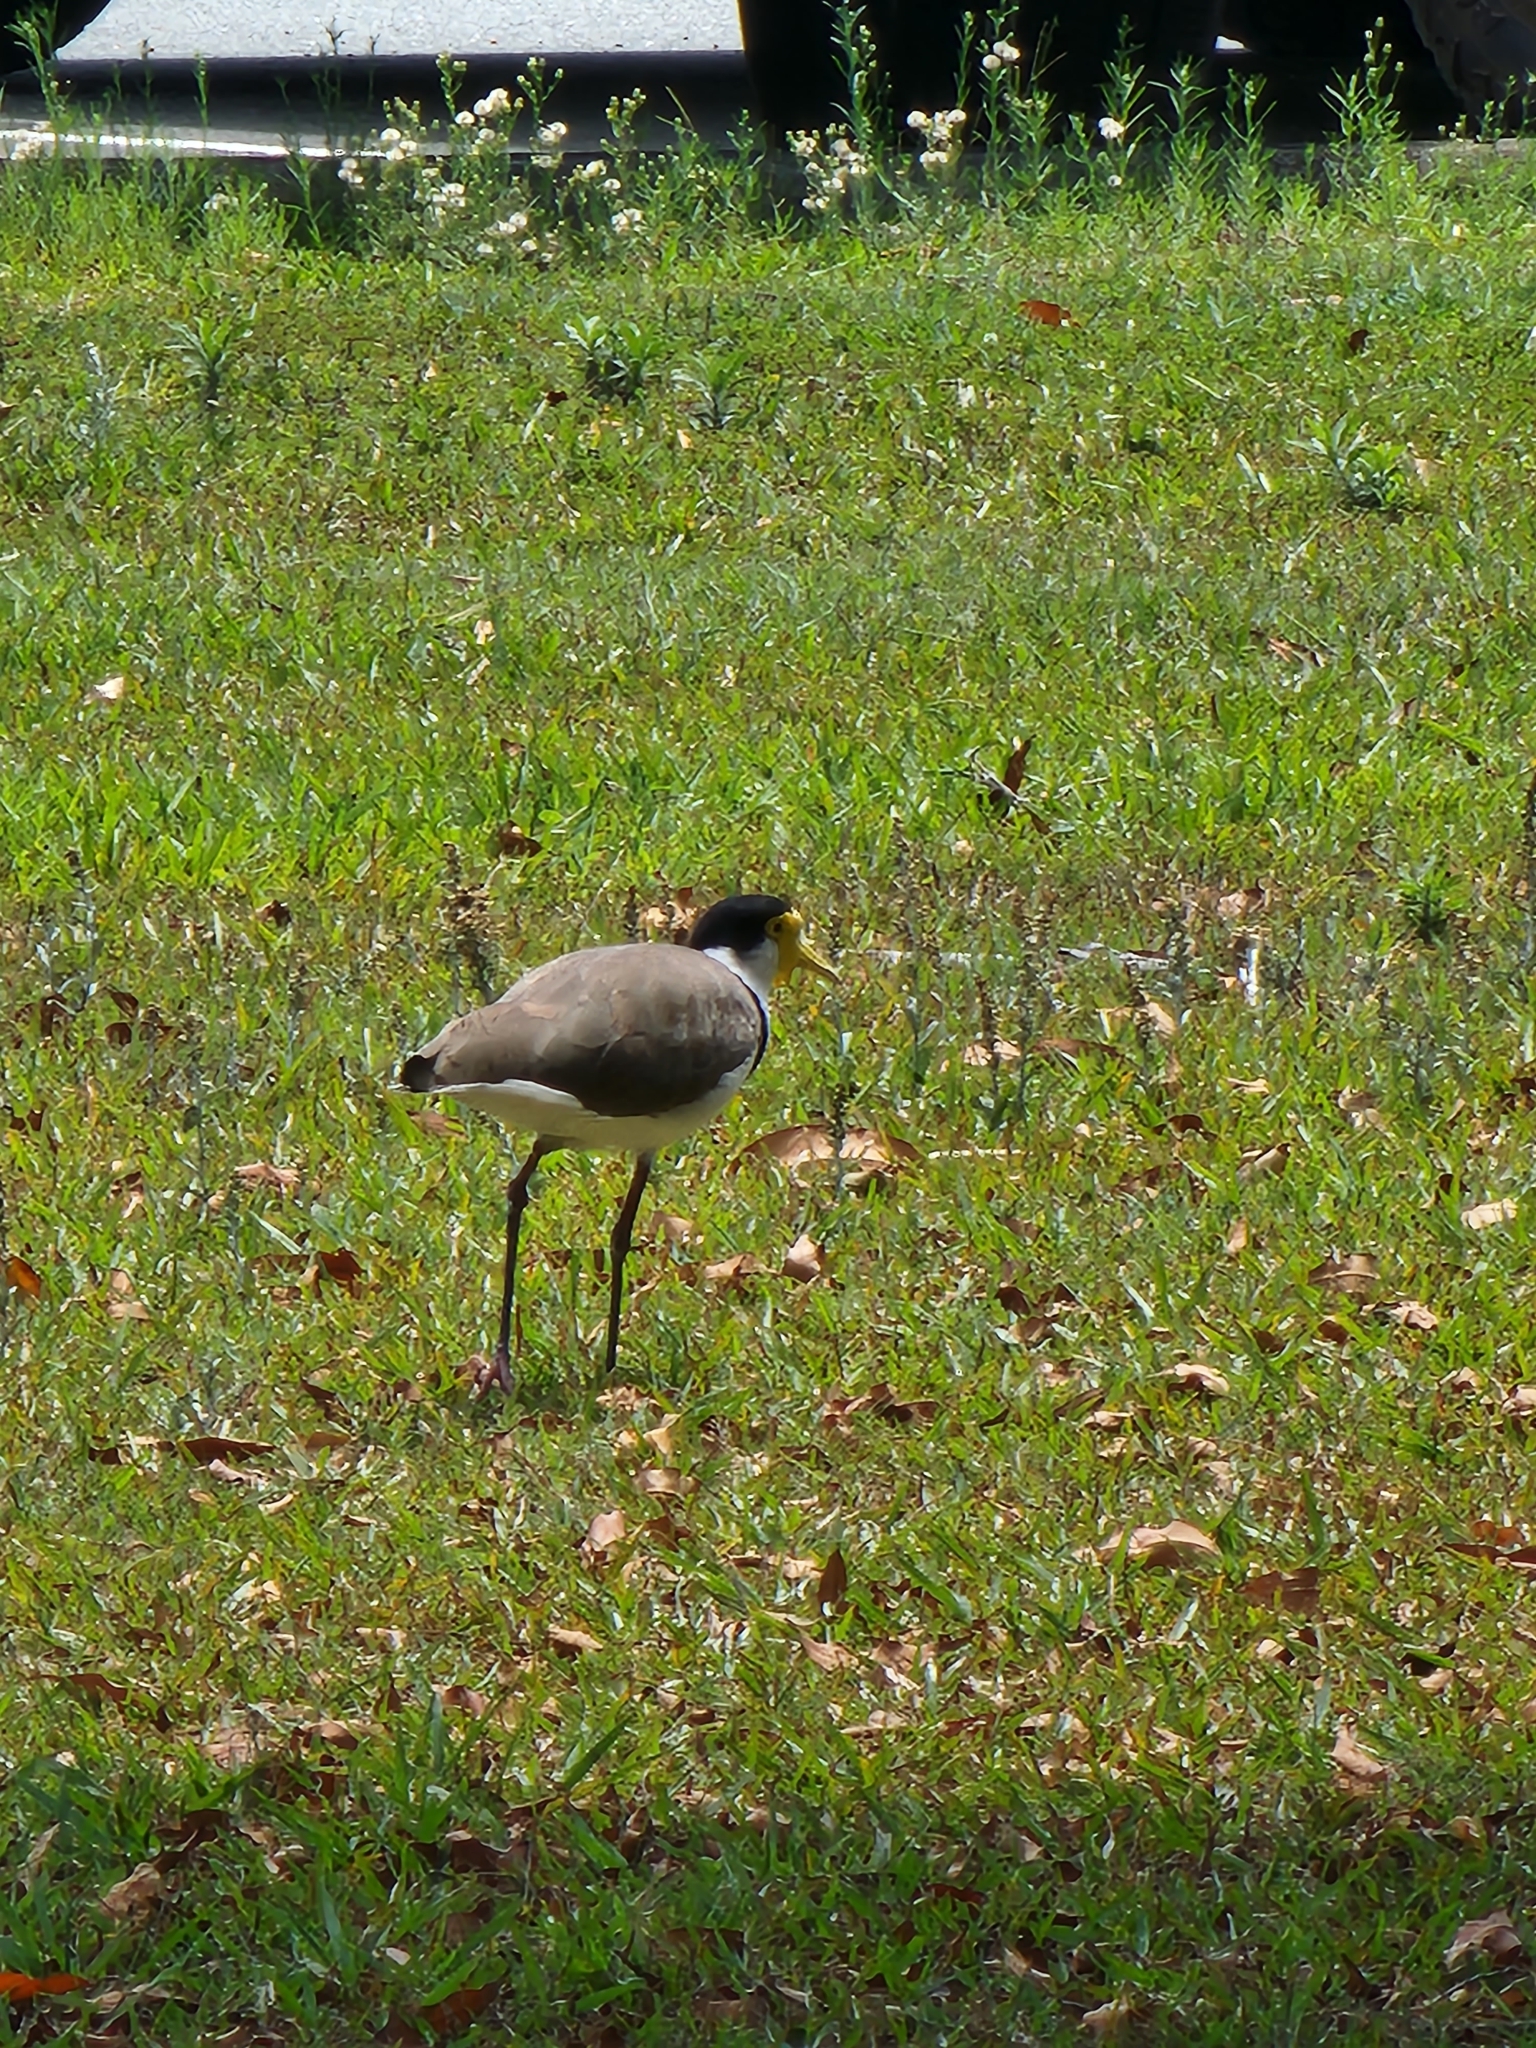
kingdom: Animalia
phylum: Chordata
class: Aves
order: Charadriiformes
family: Charadriidae
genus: Vanellus
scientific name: Vanellus miles
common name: Masked lapwing
